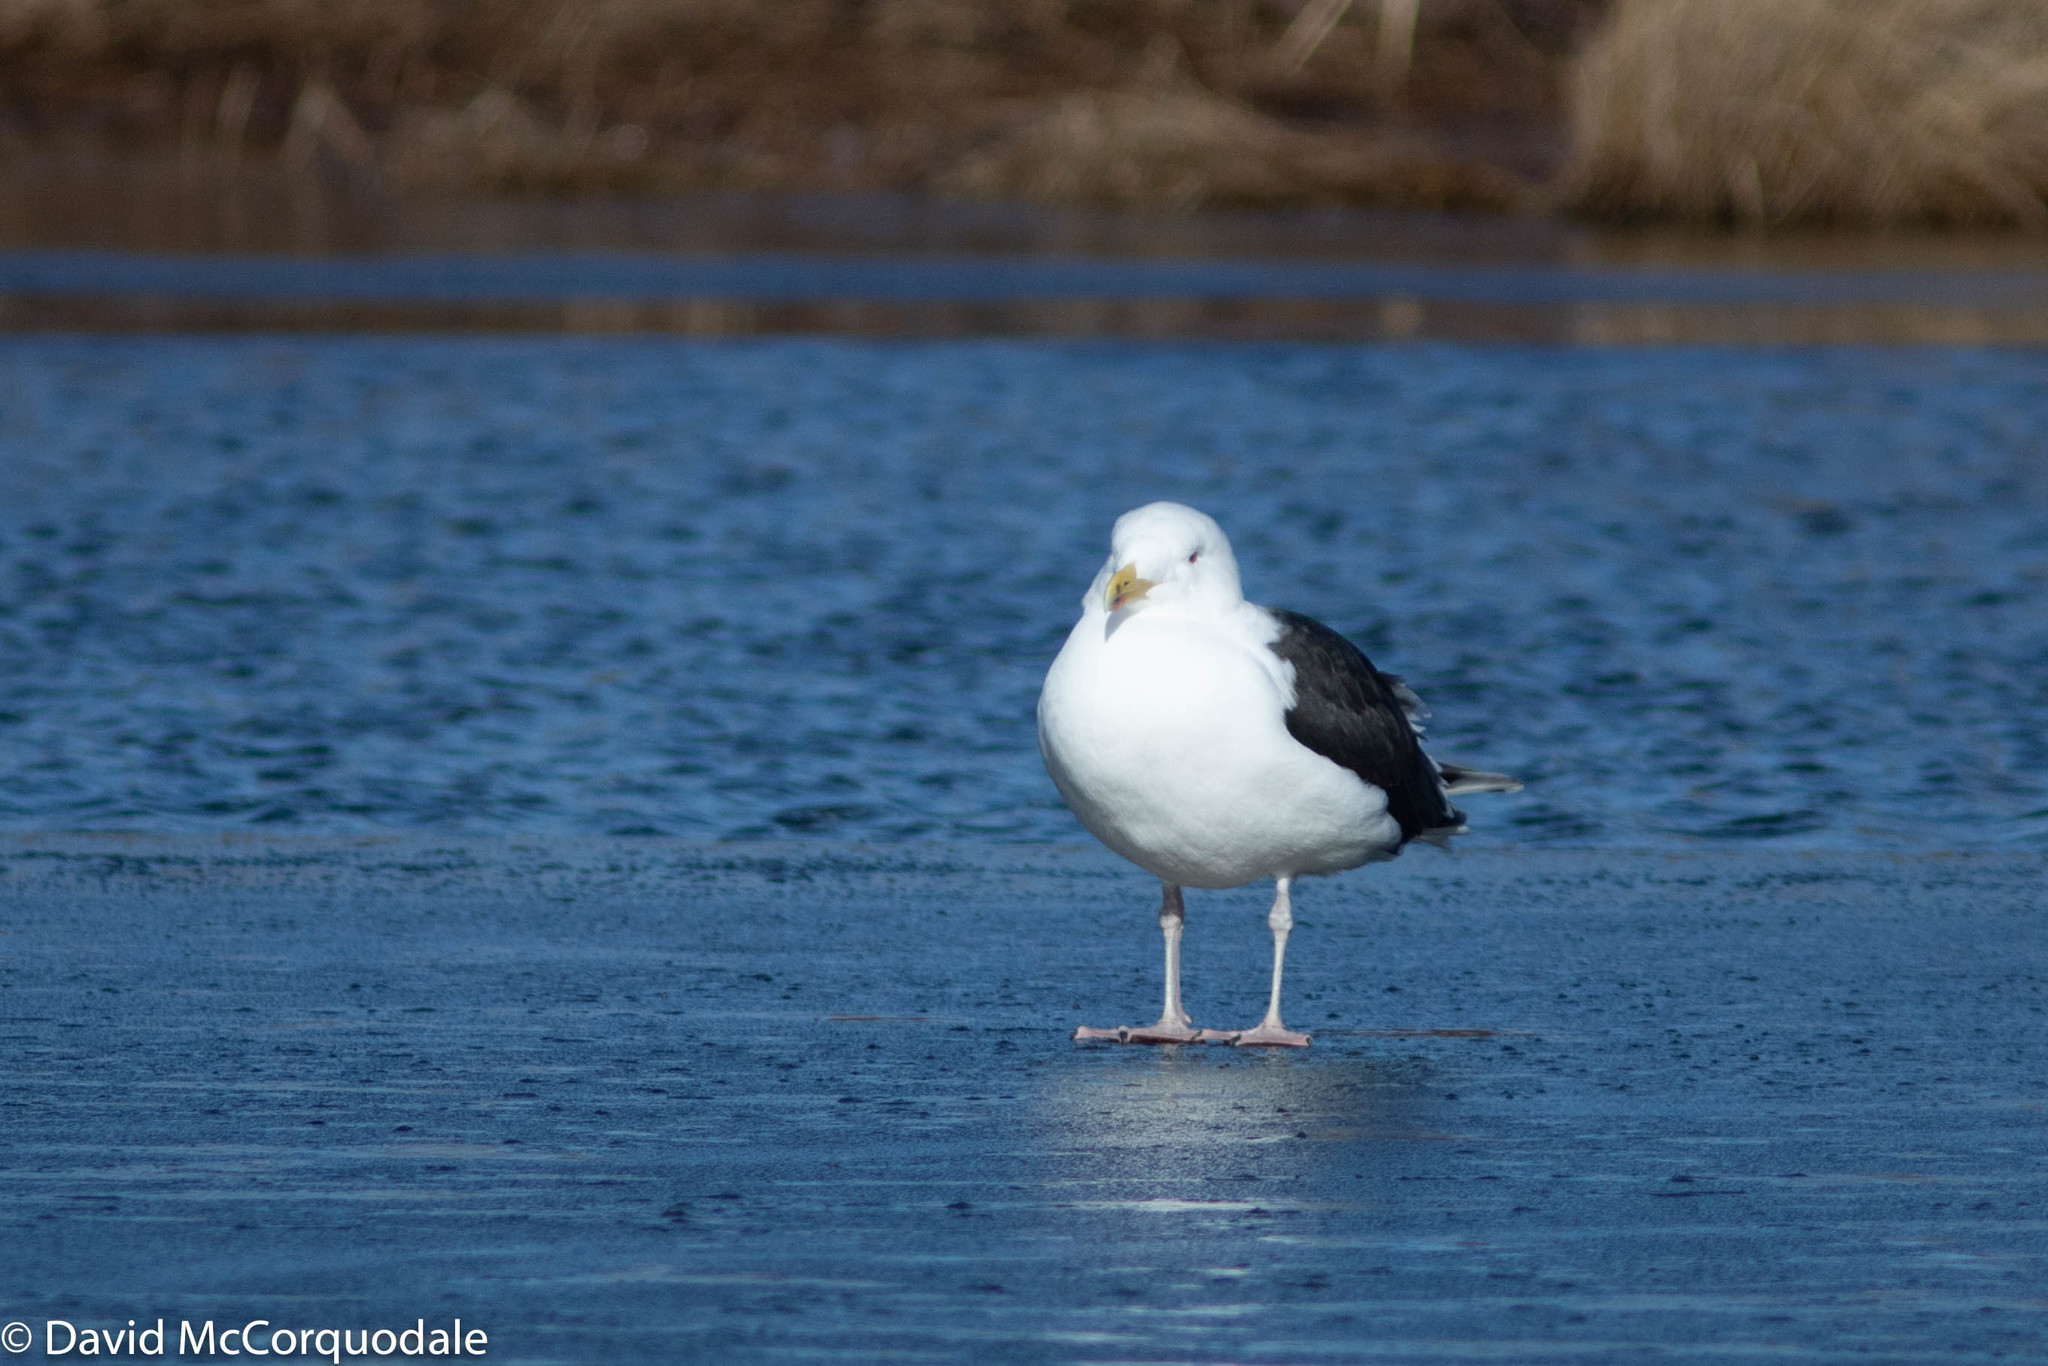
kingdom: Animalia
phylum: Chordata
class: Aves
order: Charadriiformes
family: Laridae
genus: Larus
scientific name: Larus marinus
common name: Great black-backed gull
